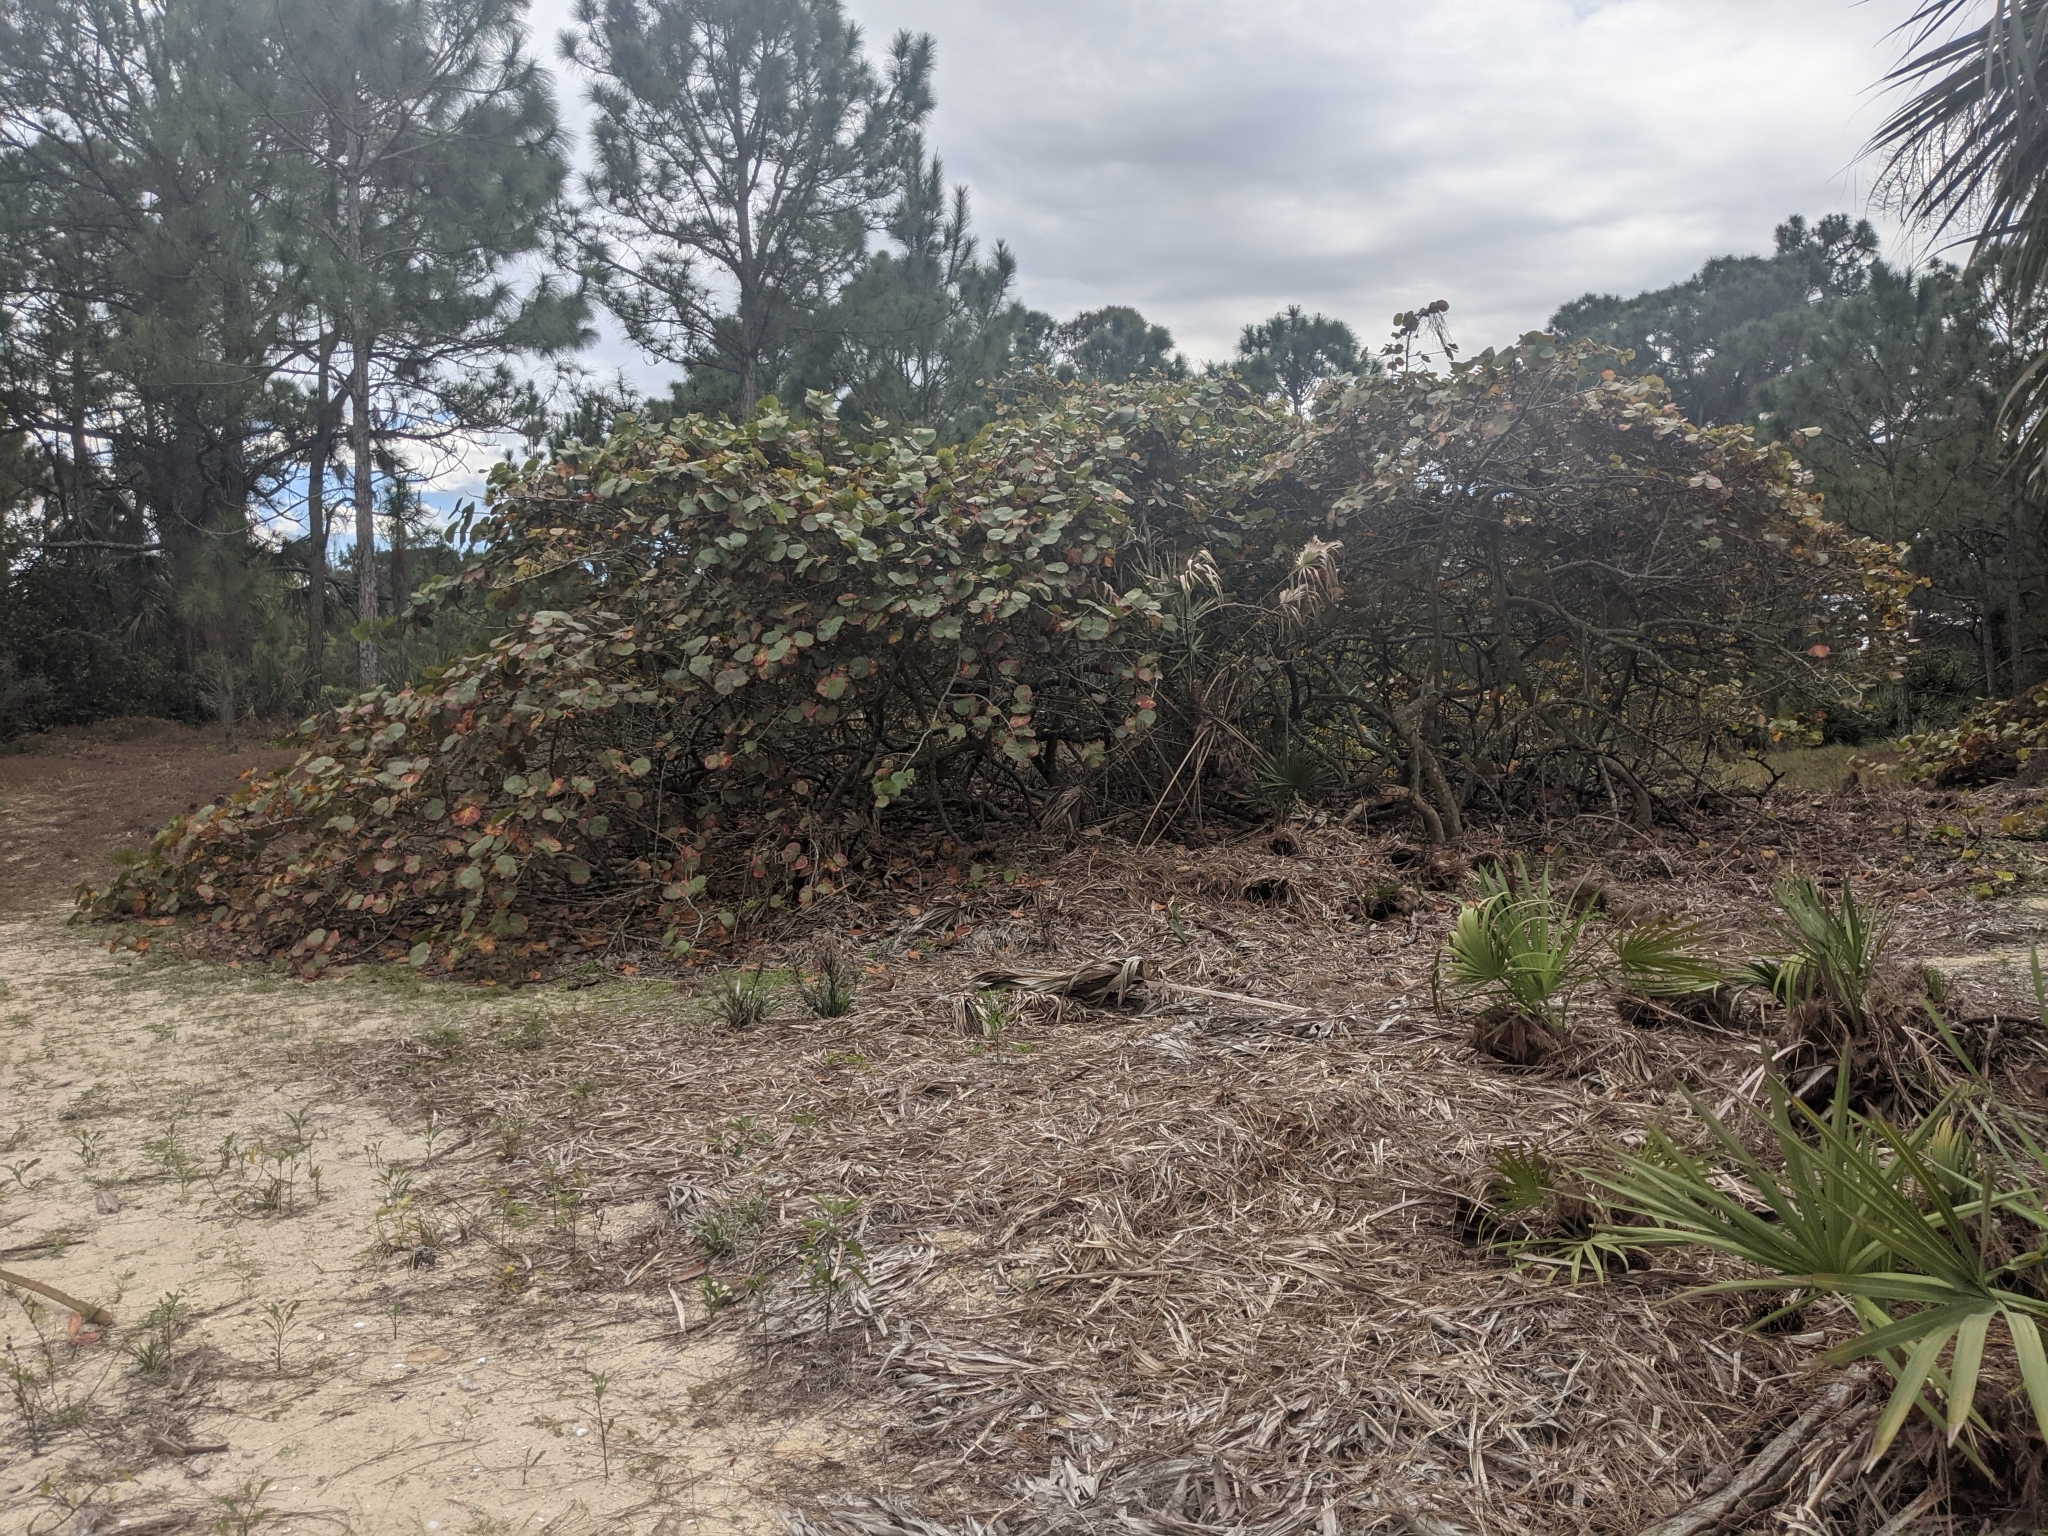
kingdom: Plantae
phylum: Tracheophyta
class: Magnoliopsida
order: Caryophyllales
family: Polygonaceae
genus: Coccoloba
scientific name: Coccoloba uvifera
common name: Seagrape
